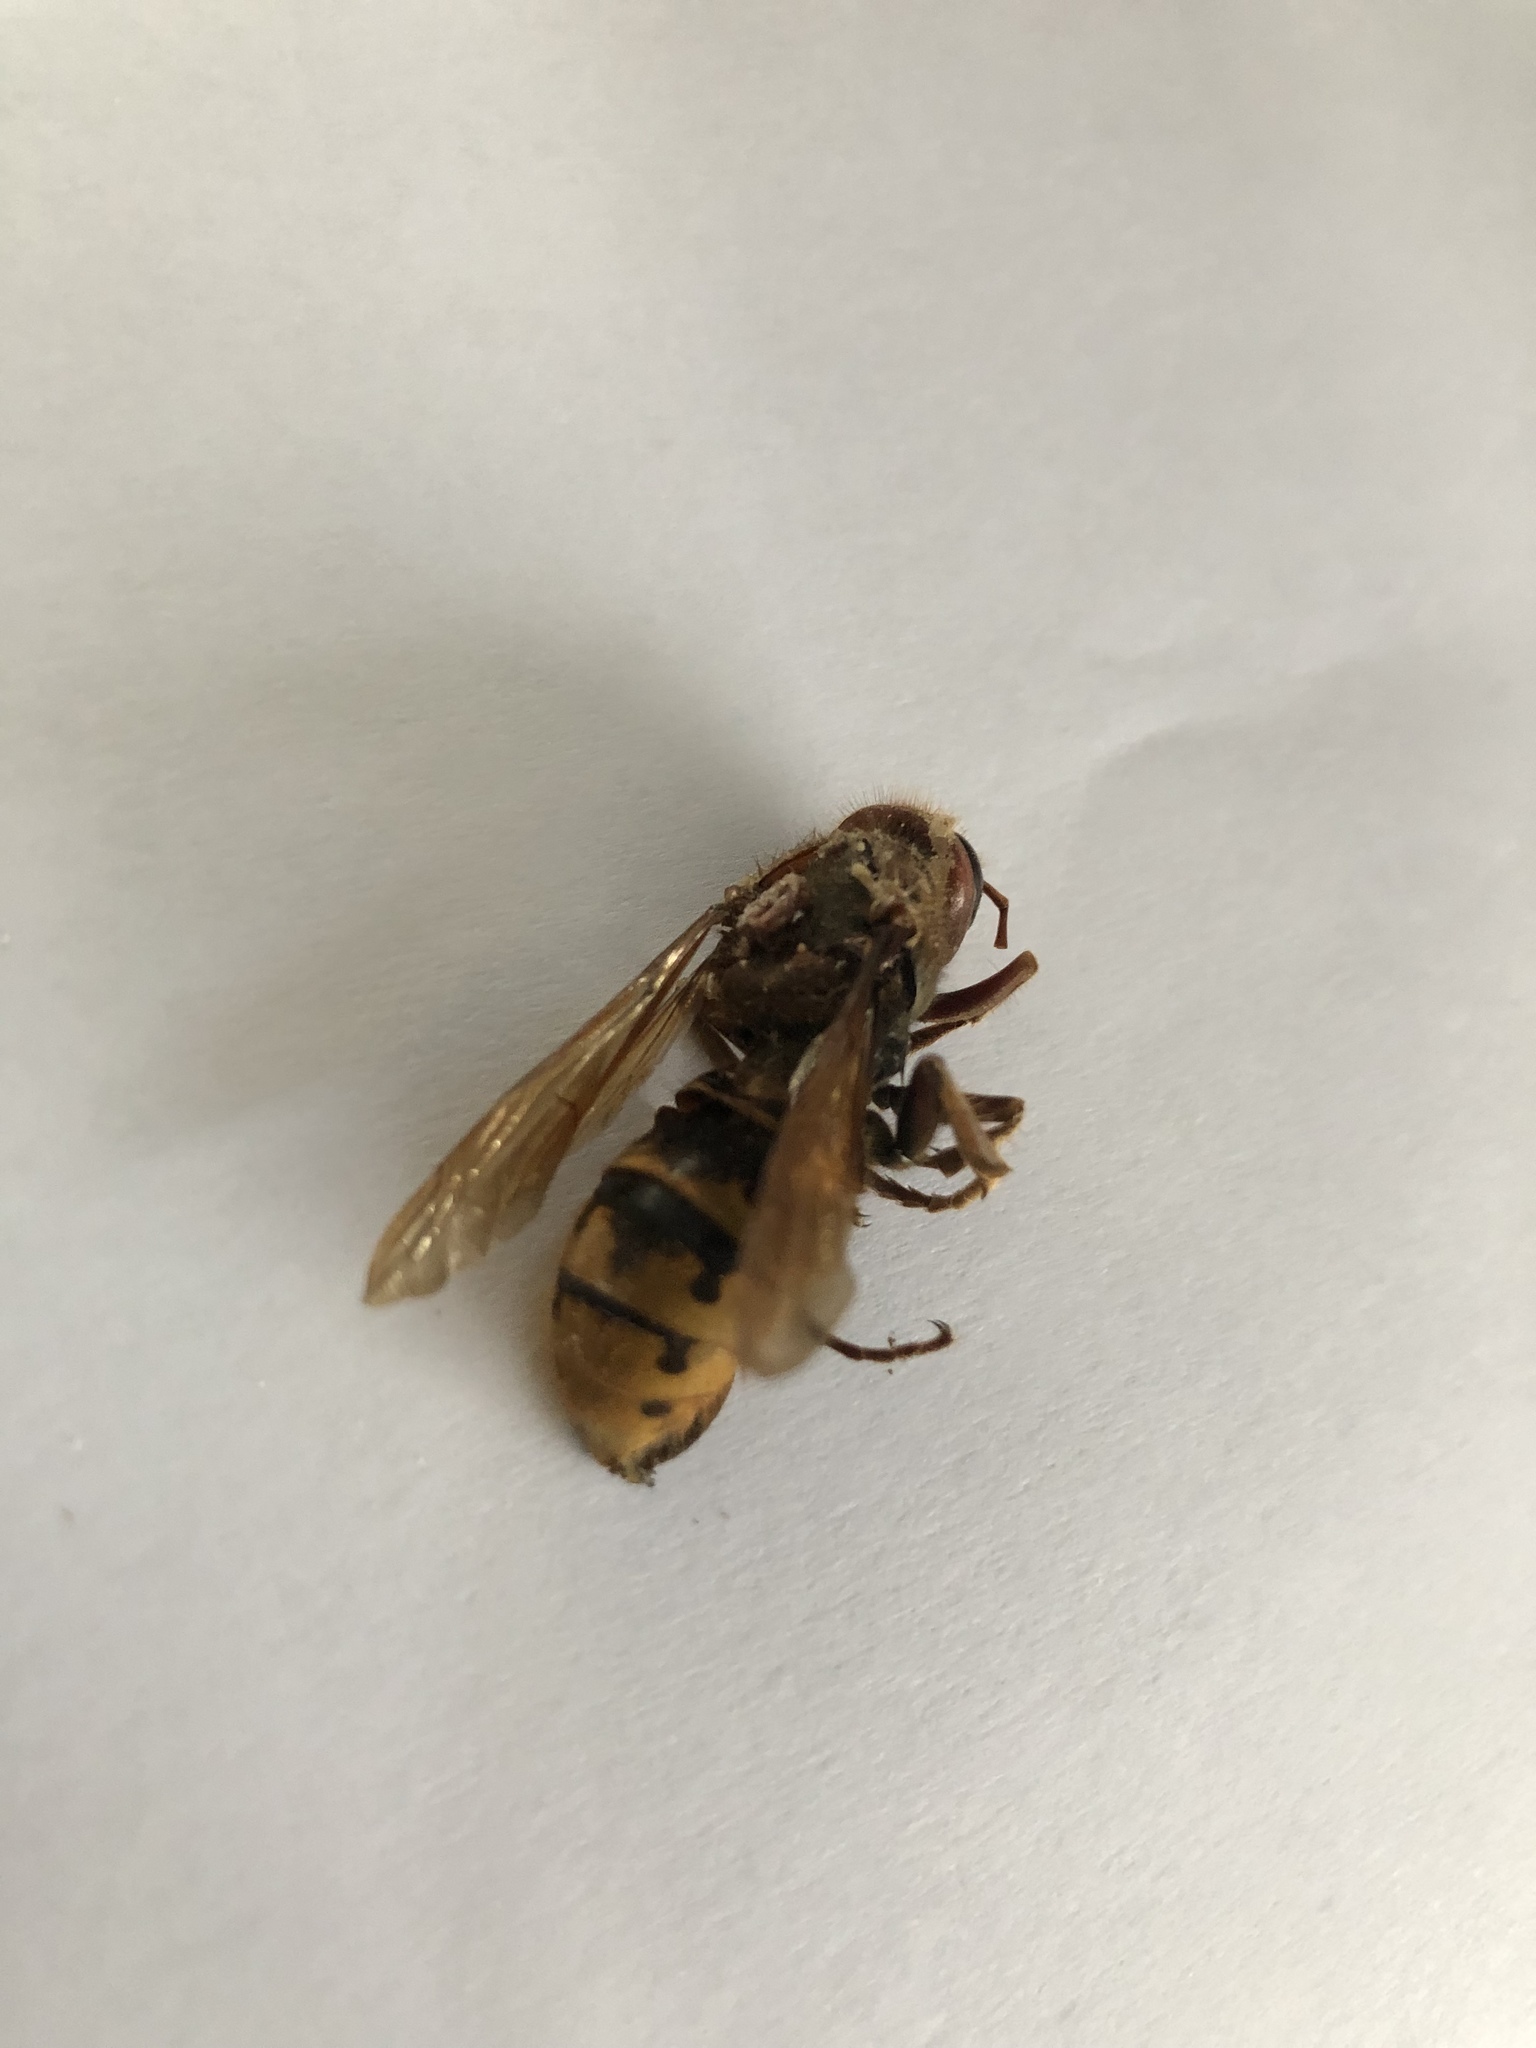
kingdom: Animalia
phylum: Arthropoda
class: Insecta
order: Hymenoptera
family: Vespidae
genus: Vespa
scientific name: Vespa crabro
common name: Hornet
